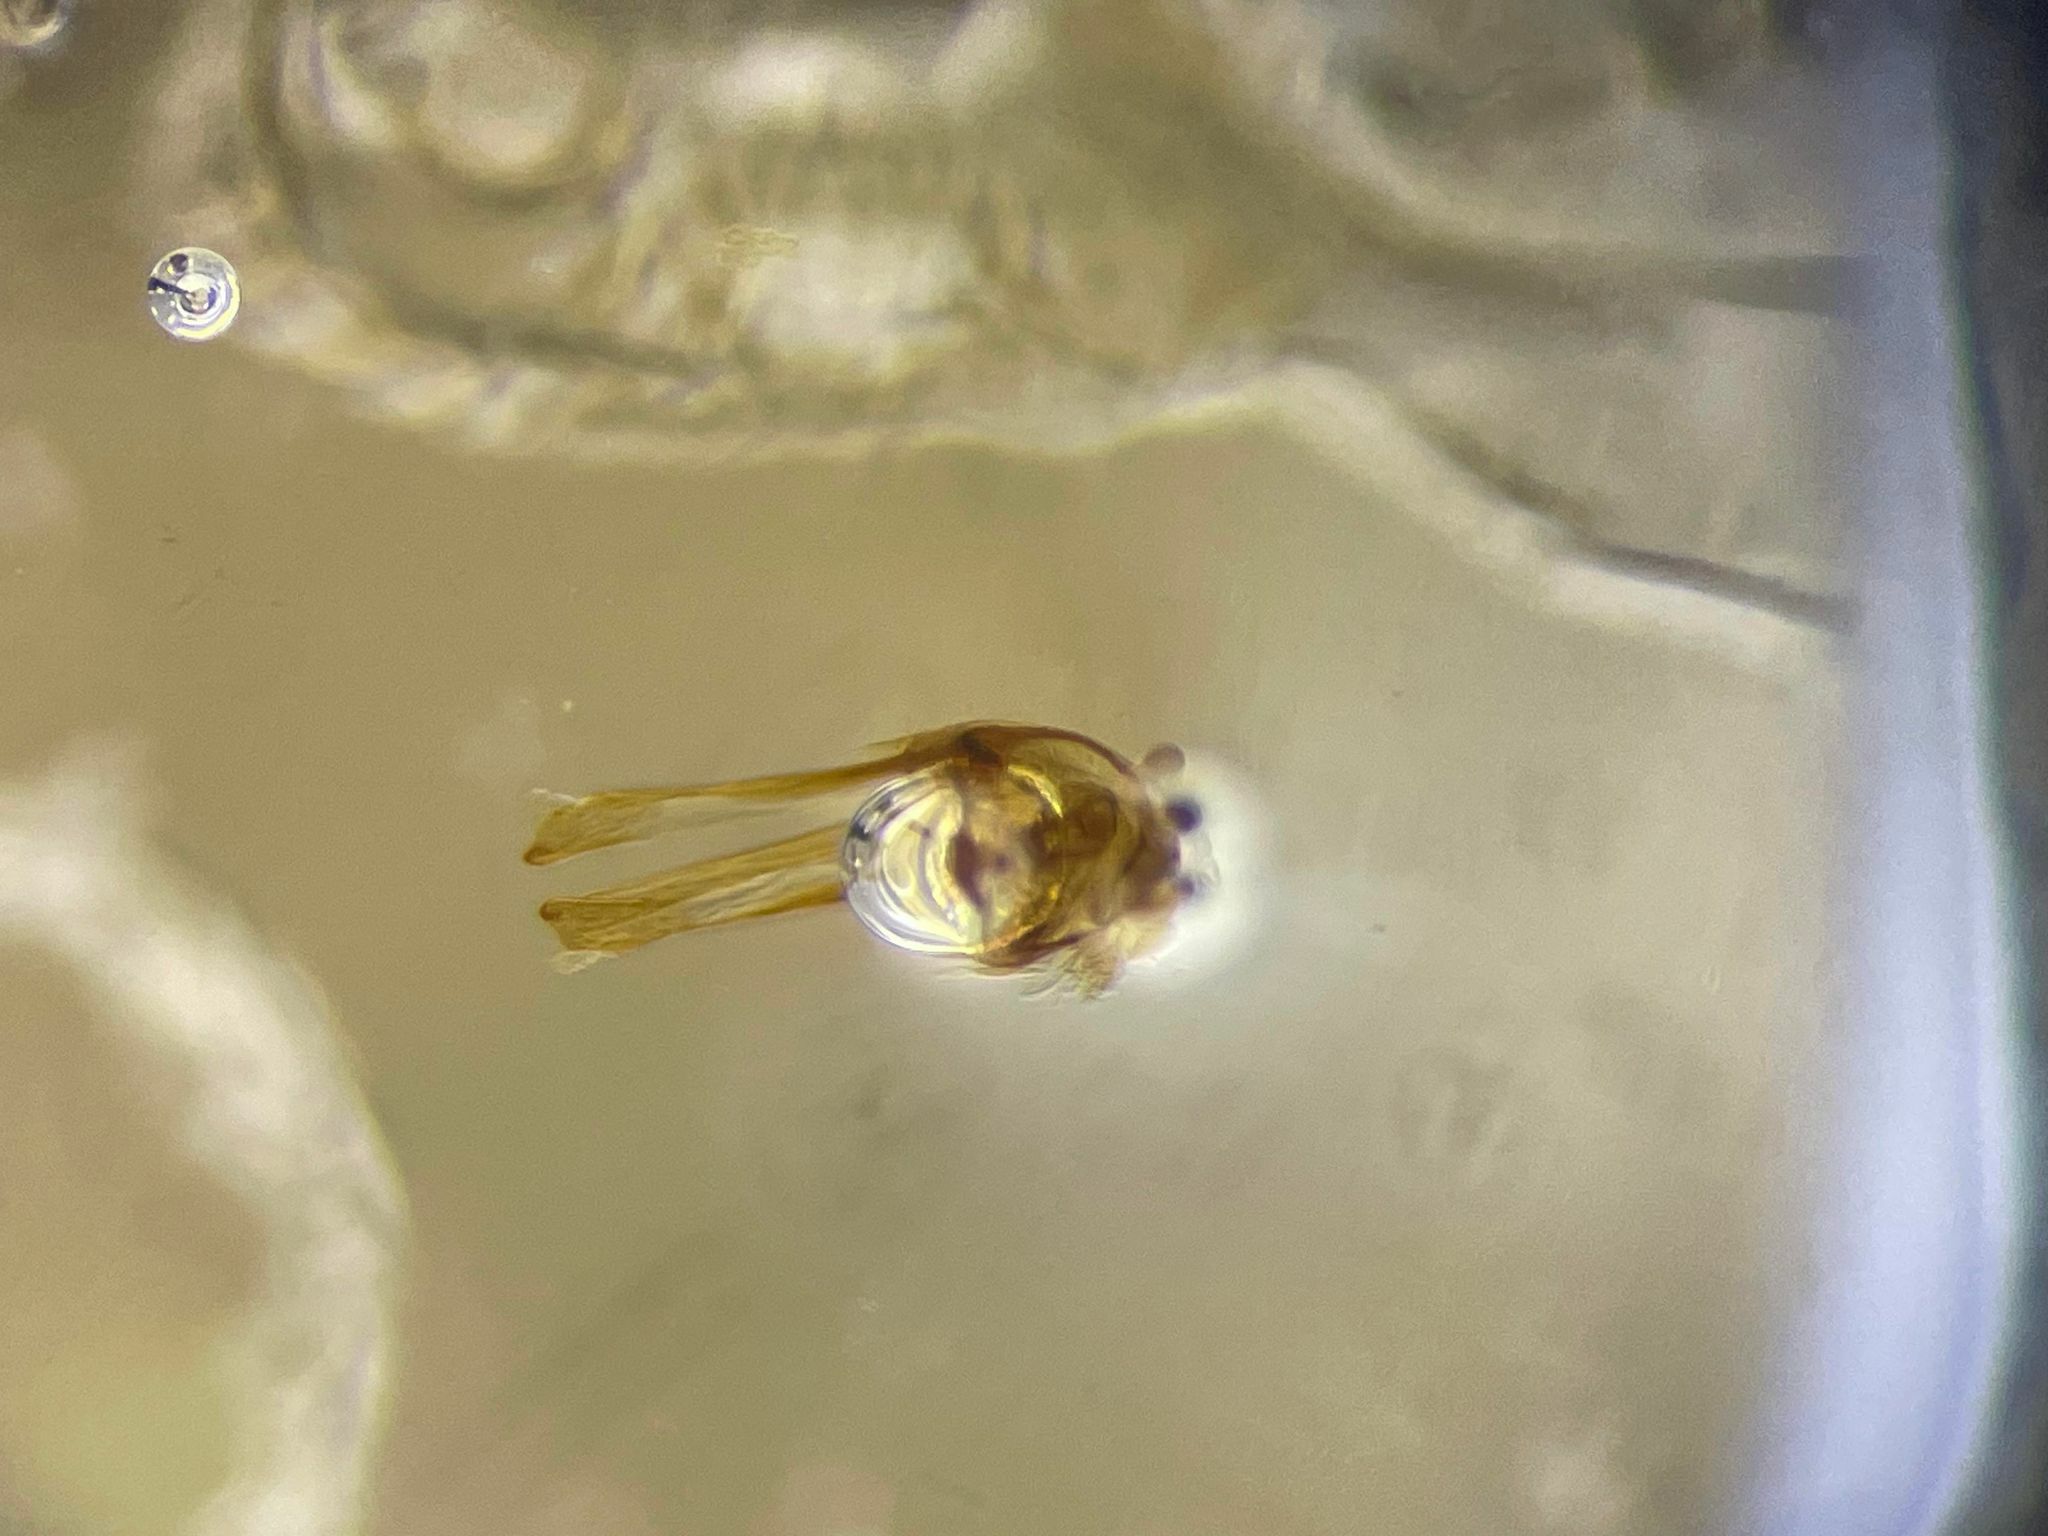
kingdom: Animalia
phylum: Arthropoda
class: Insecta
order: Coleoptera
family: Anobiidae
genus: Ptilinus
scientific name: Ptilinus ruficornis
